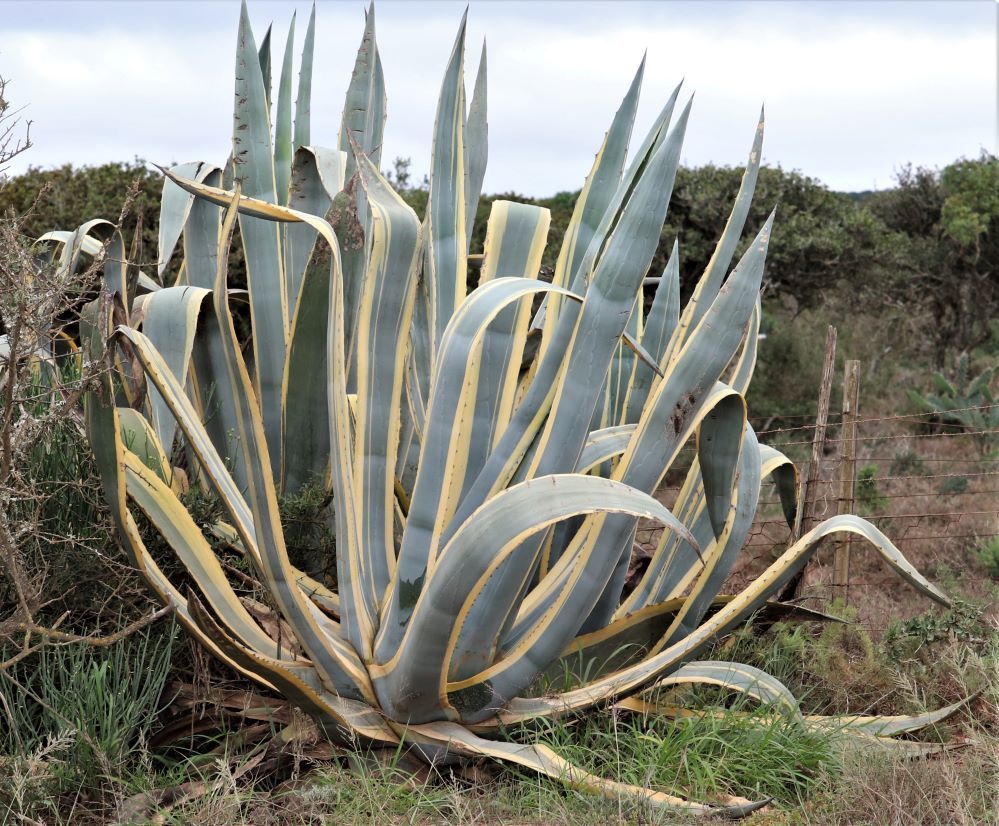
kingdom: Plantae
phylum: Tracheophyta
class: Liliopsida
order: Asparagales
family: Asparagaceae
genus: Agave
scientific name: Agave americana
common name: Centuryplant
